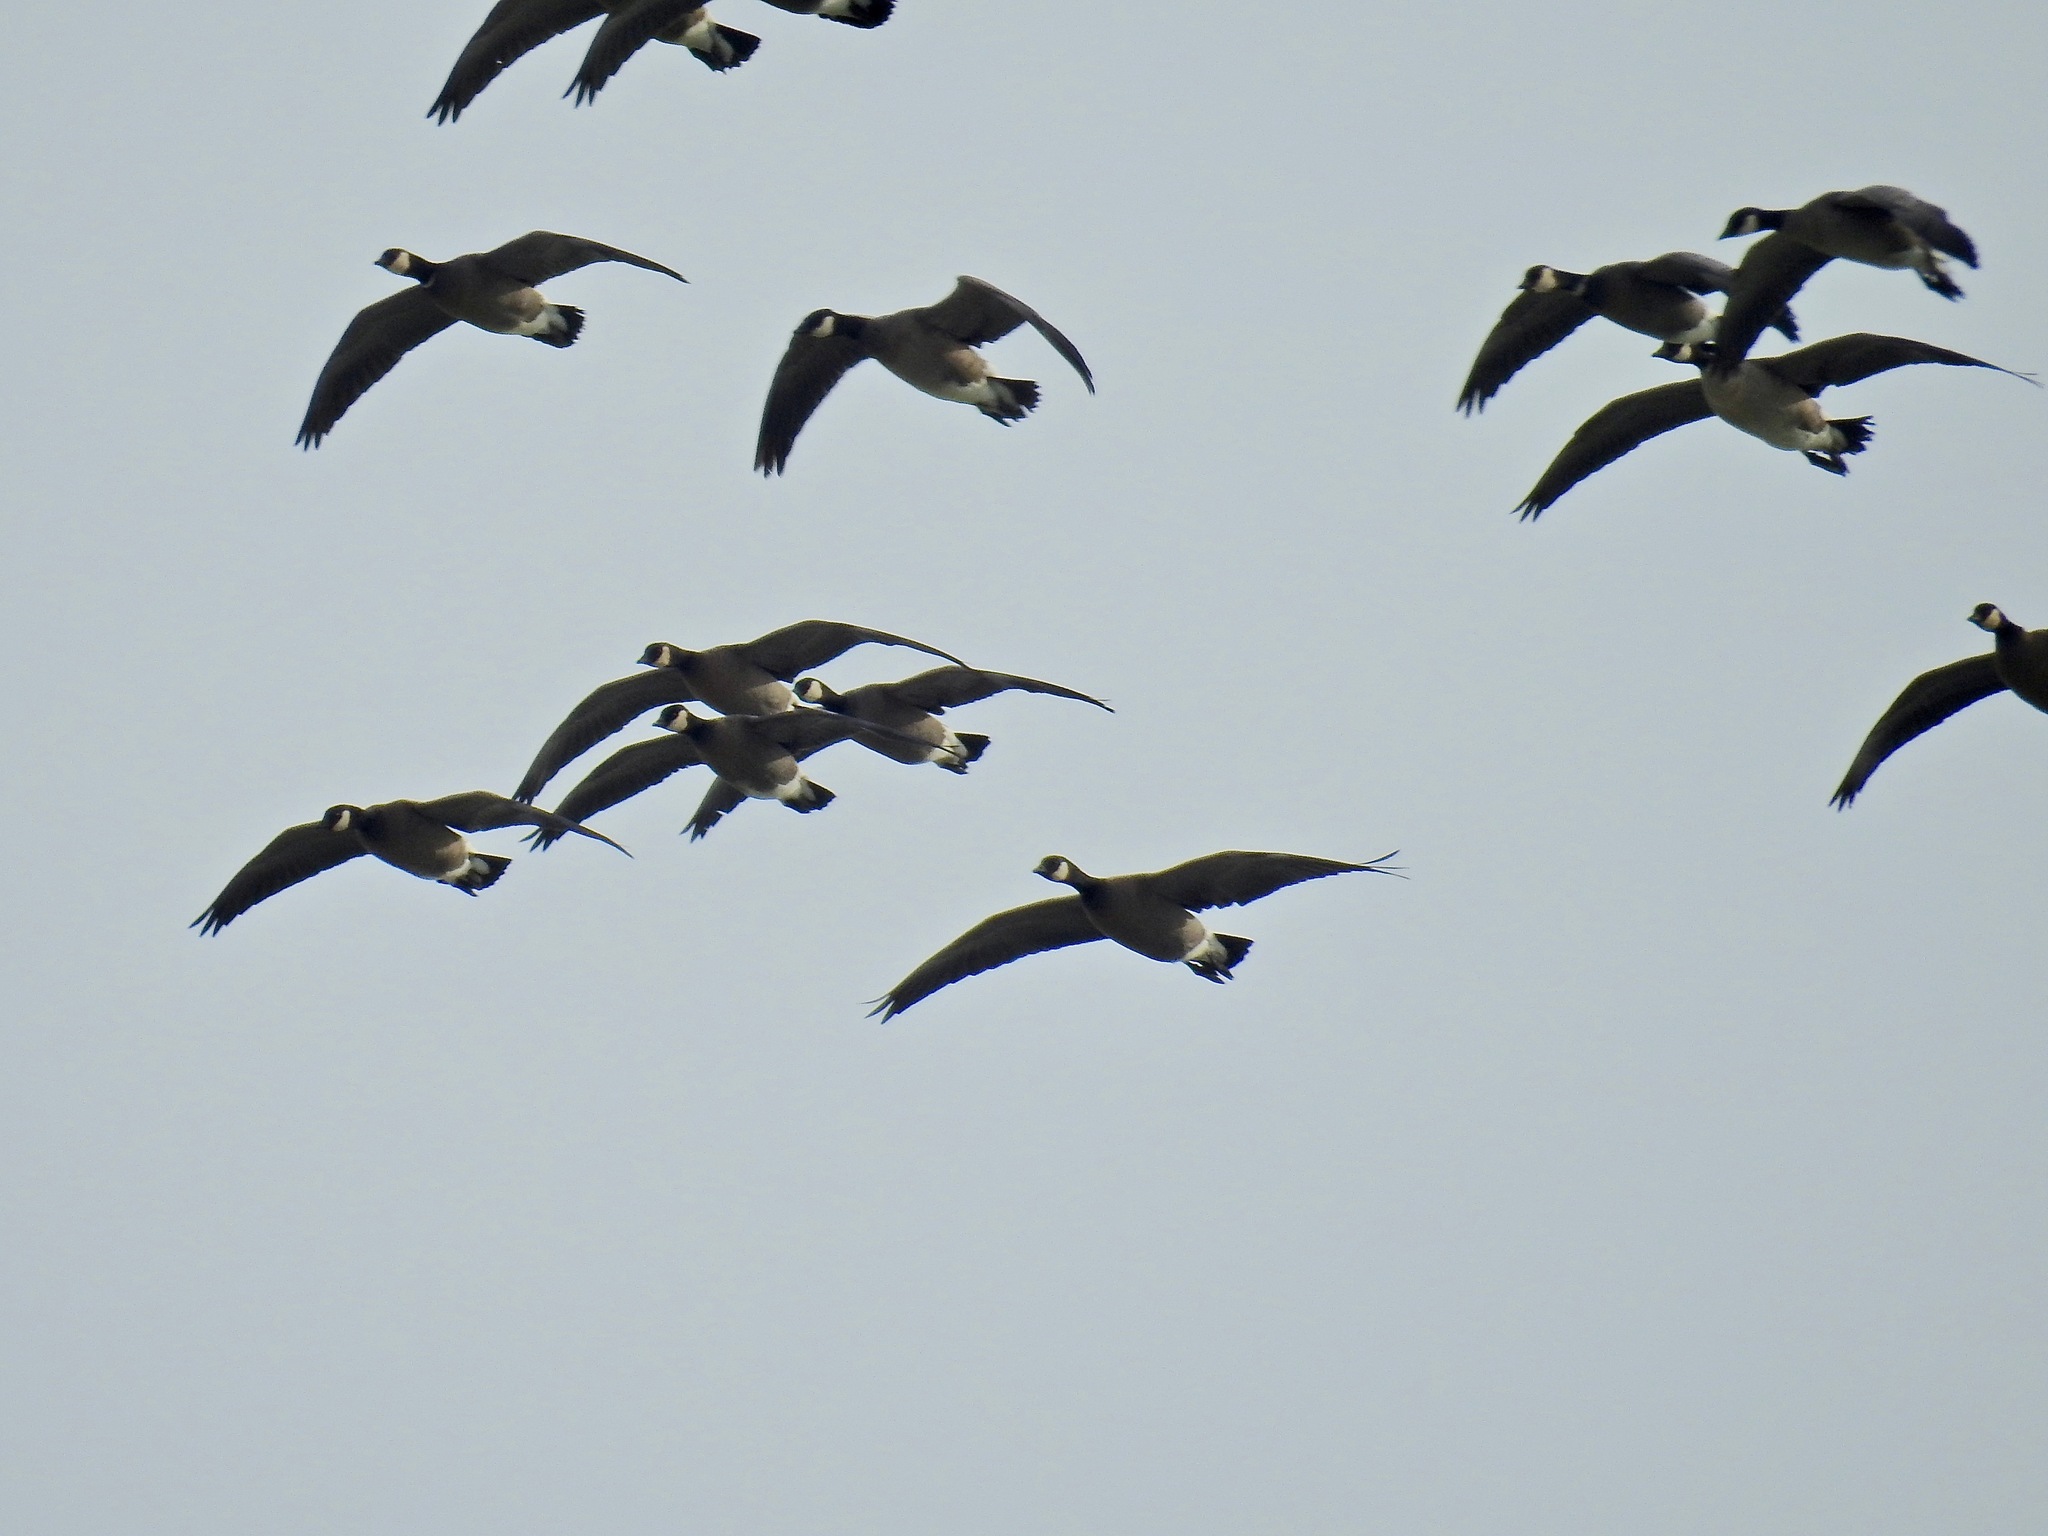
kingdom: Animalia
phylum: Chordata
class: Aves
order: Anseriformes
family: Anatidae
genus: Branta
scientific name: Branta hutchinsii
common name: Cackling goose
